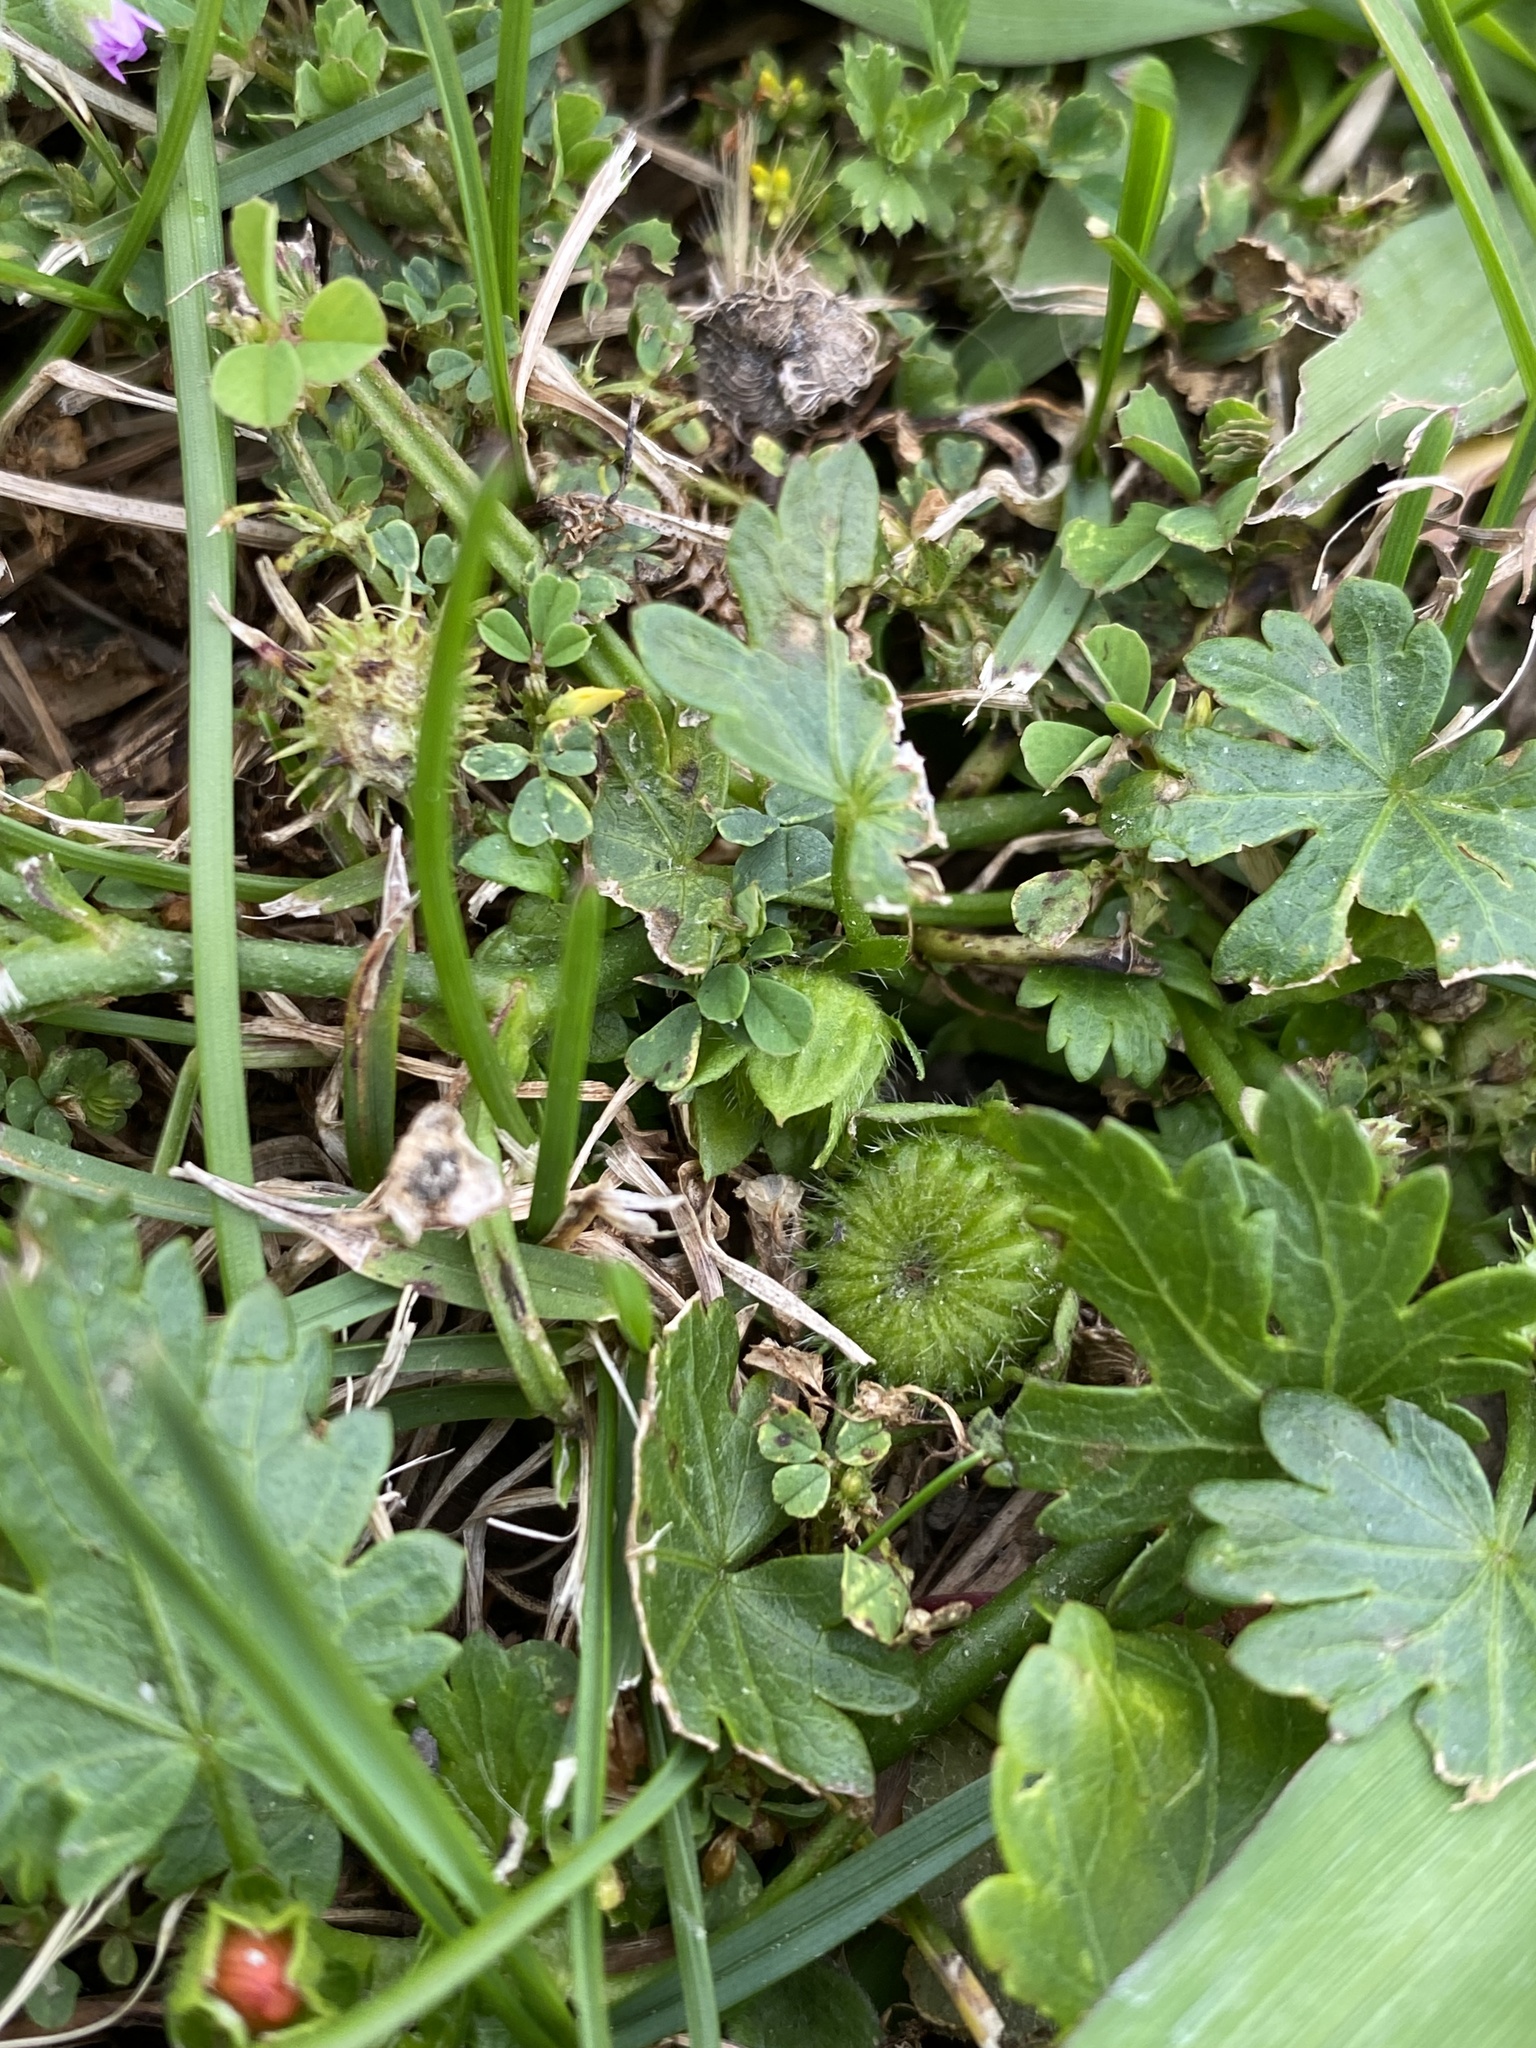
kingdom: Plantae
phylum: Tracheophyta
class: Magnoliopsida
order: Malvales
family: Malvaceae
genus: Modiola
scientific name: Modiola caroliniana
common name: Carolina bristlemallow
